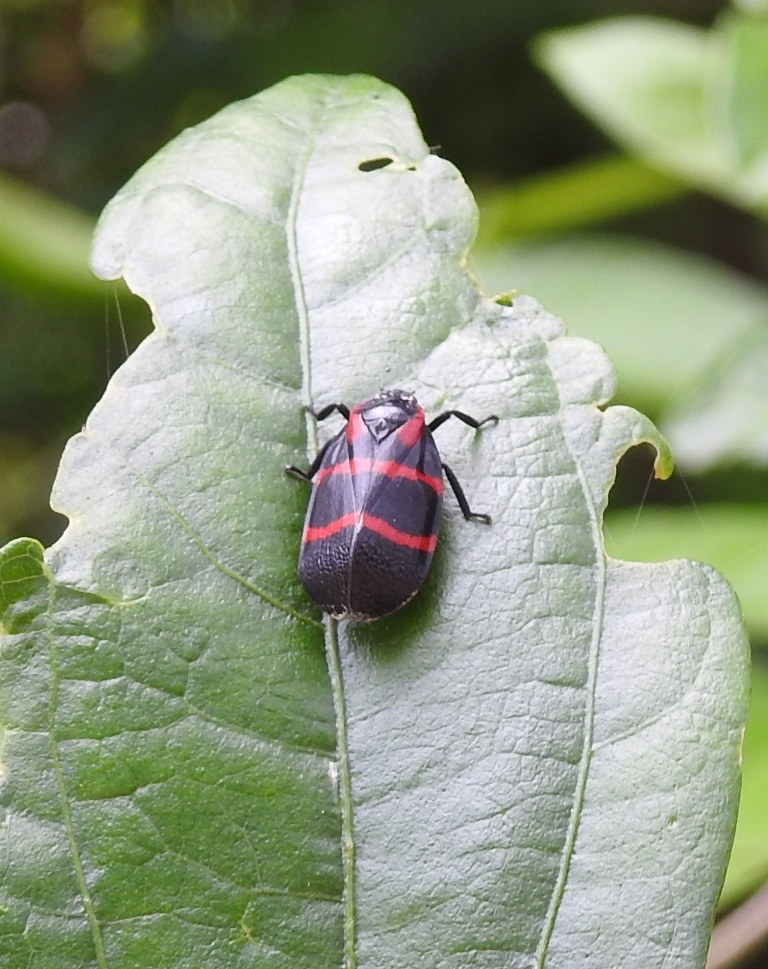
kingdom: Animalia
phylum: Arthropoda
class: Insecta
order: Hemiptera
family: Cercopidae
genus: Huaina
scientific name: Huaina inca
